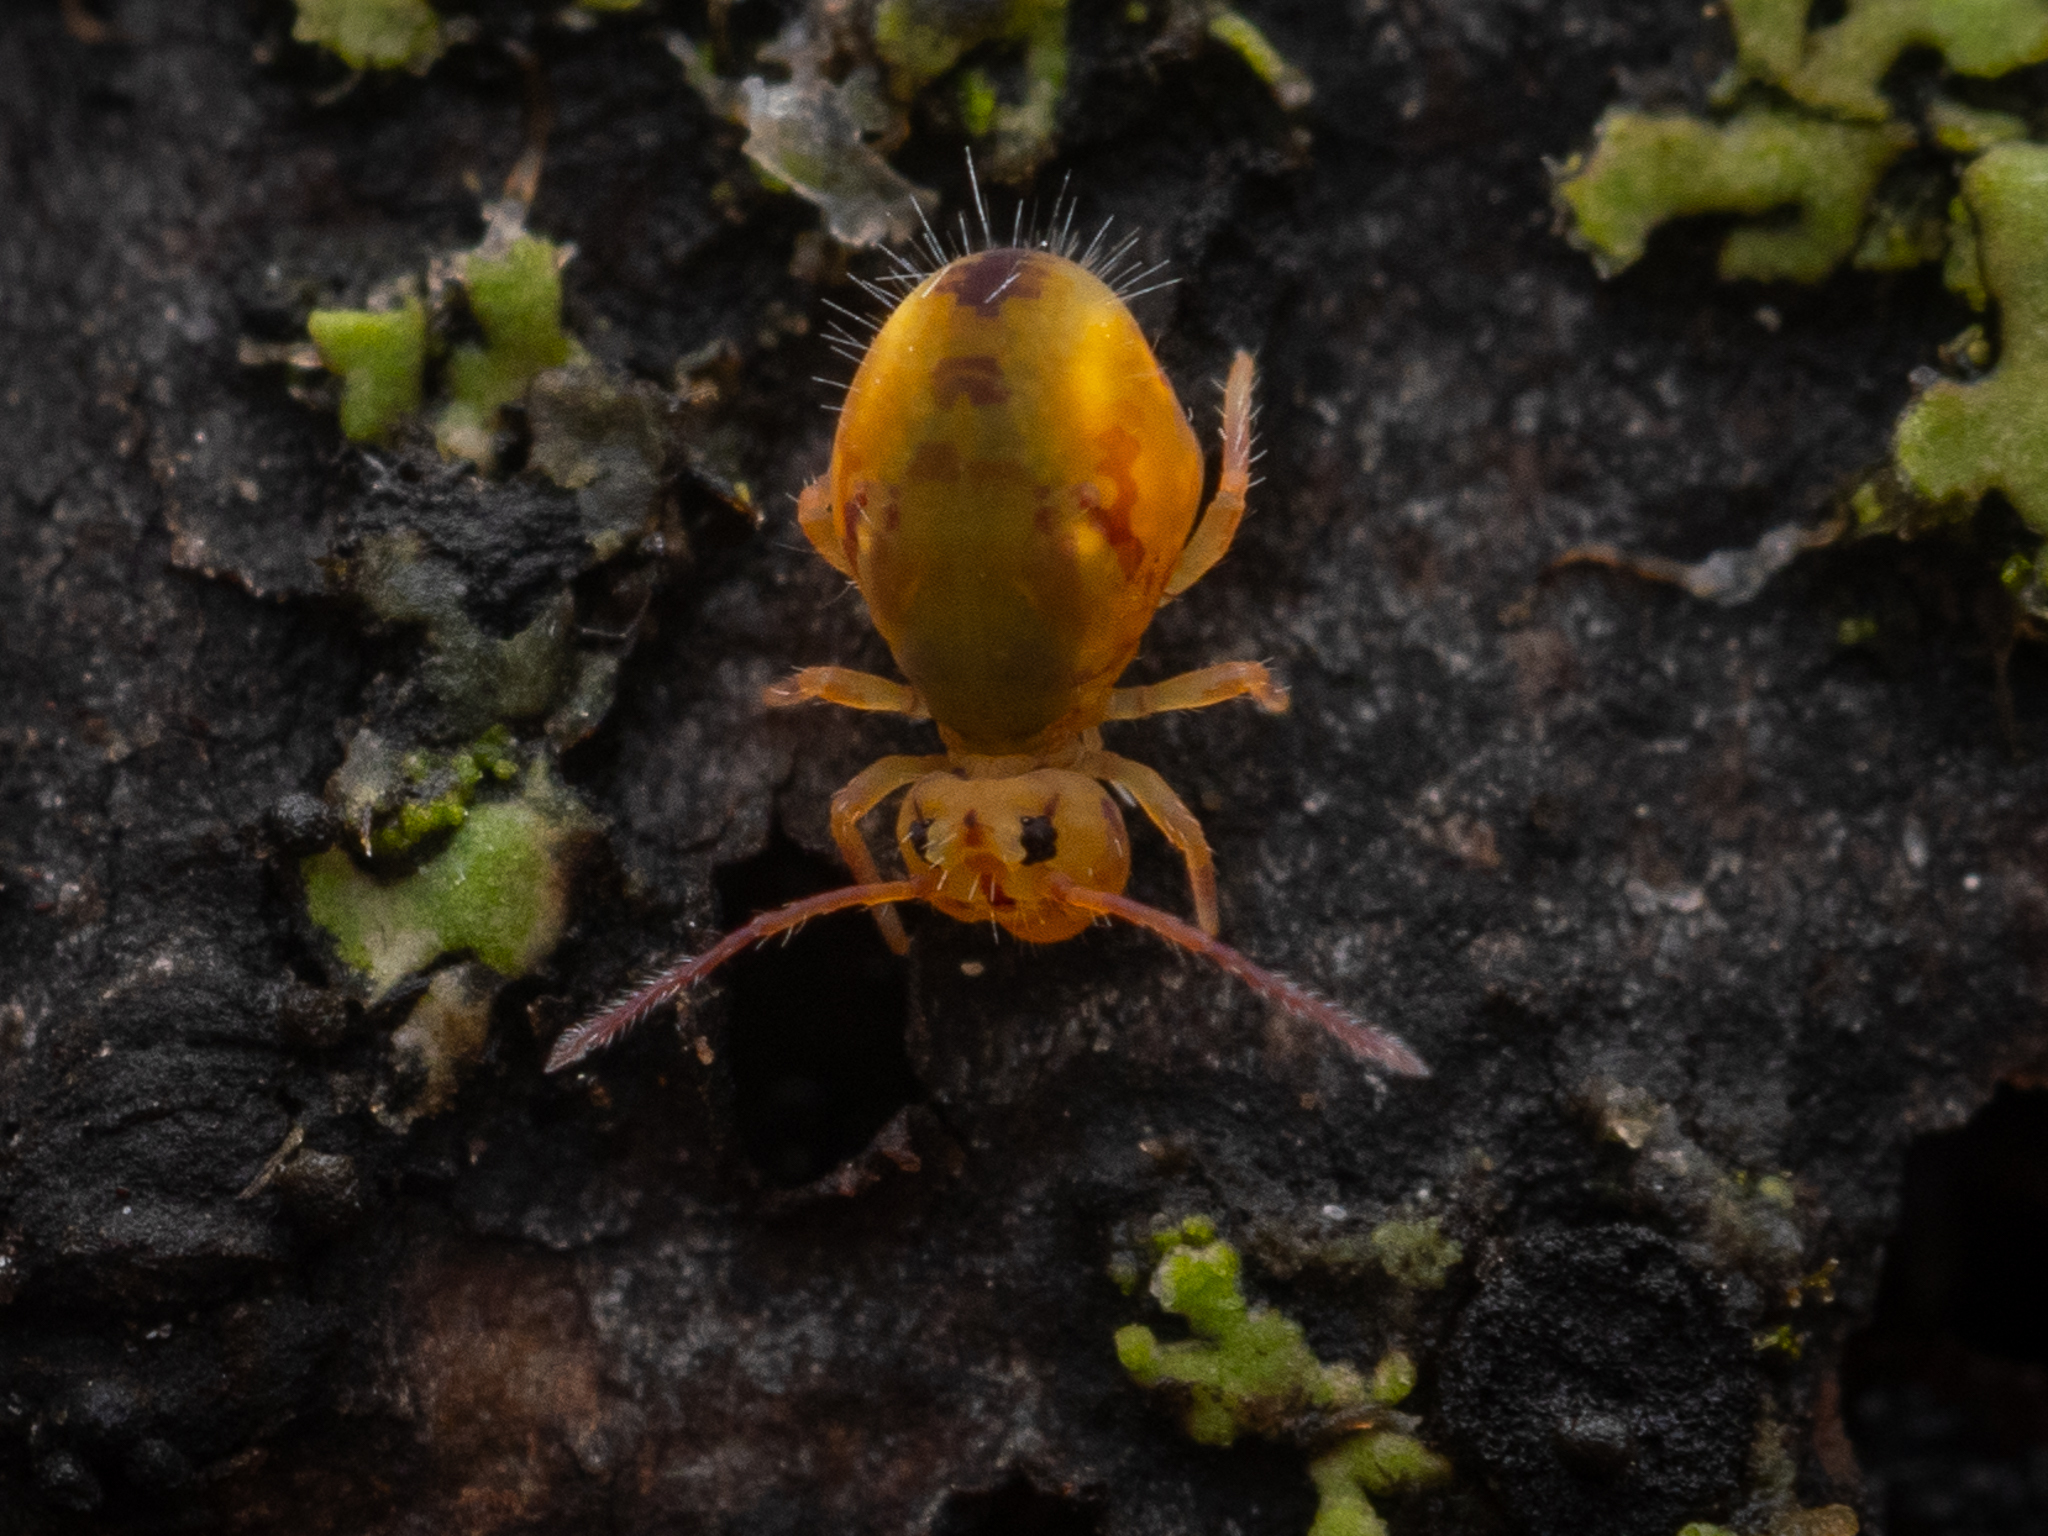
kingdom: Animalia
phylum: Arthropoda
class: Collembola
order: Symphypleona
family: Dicyrtomidae
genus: Dicyrtomina
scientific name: Dicyrtomina ornata
